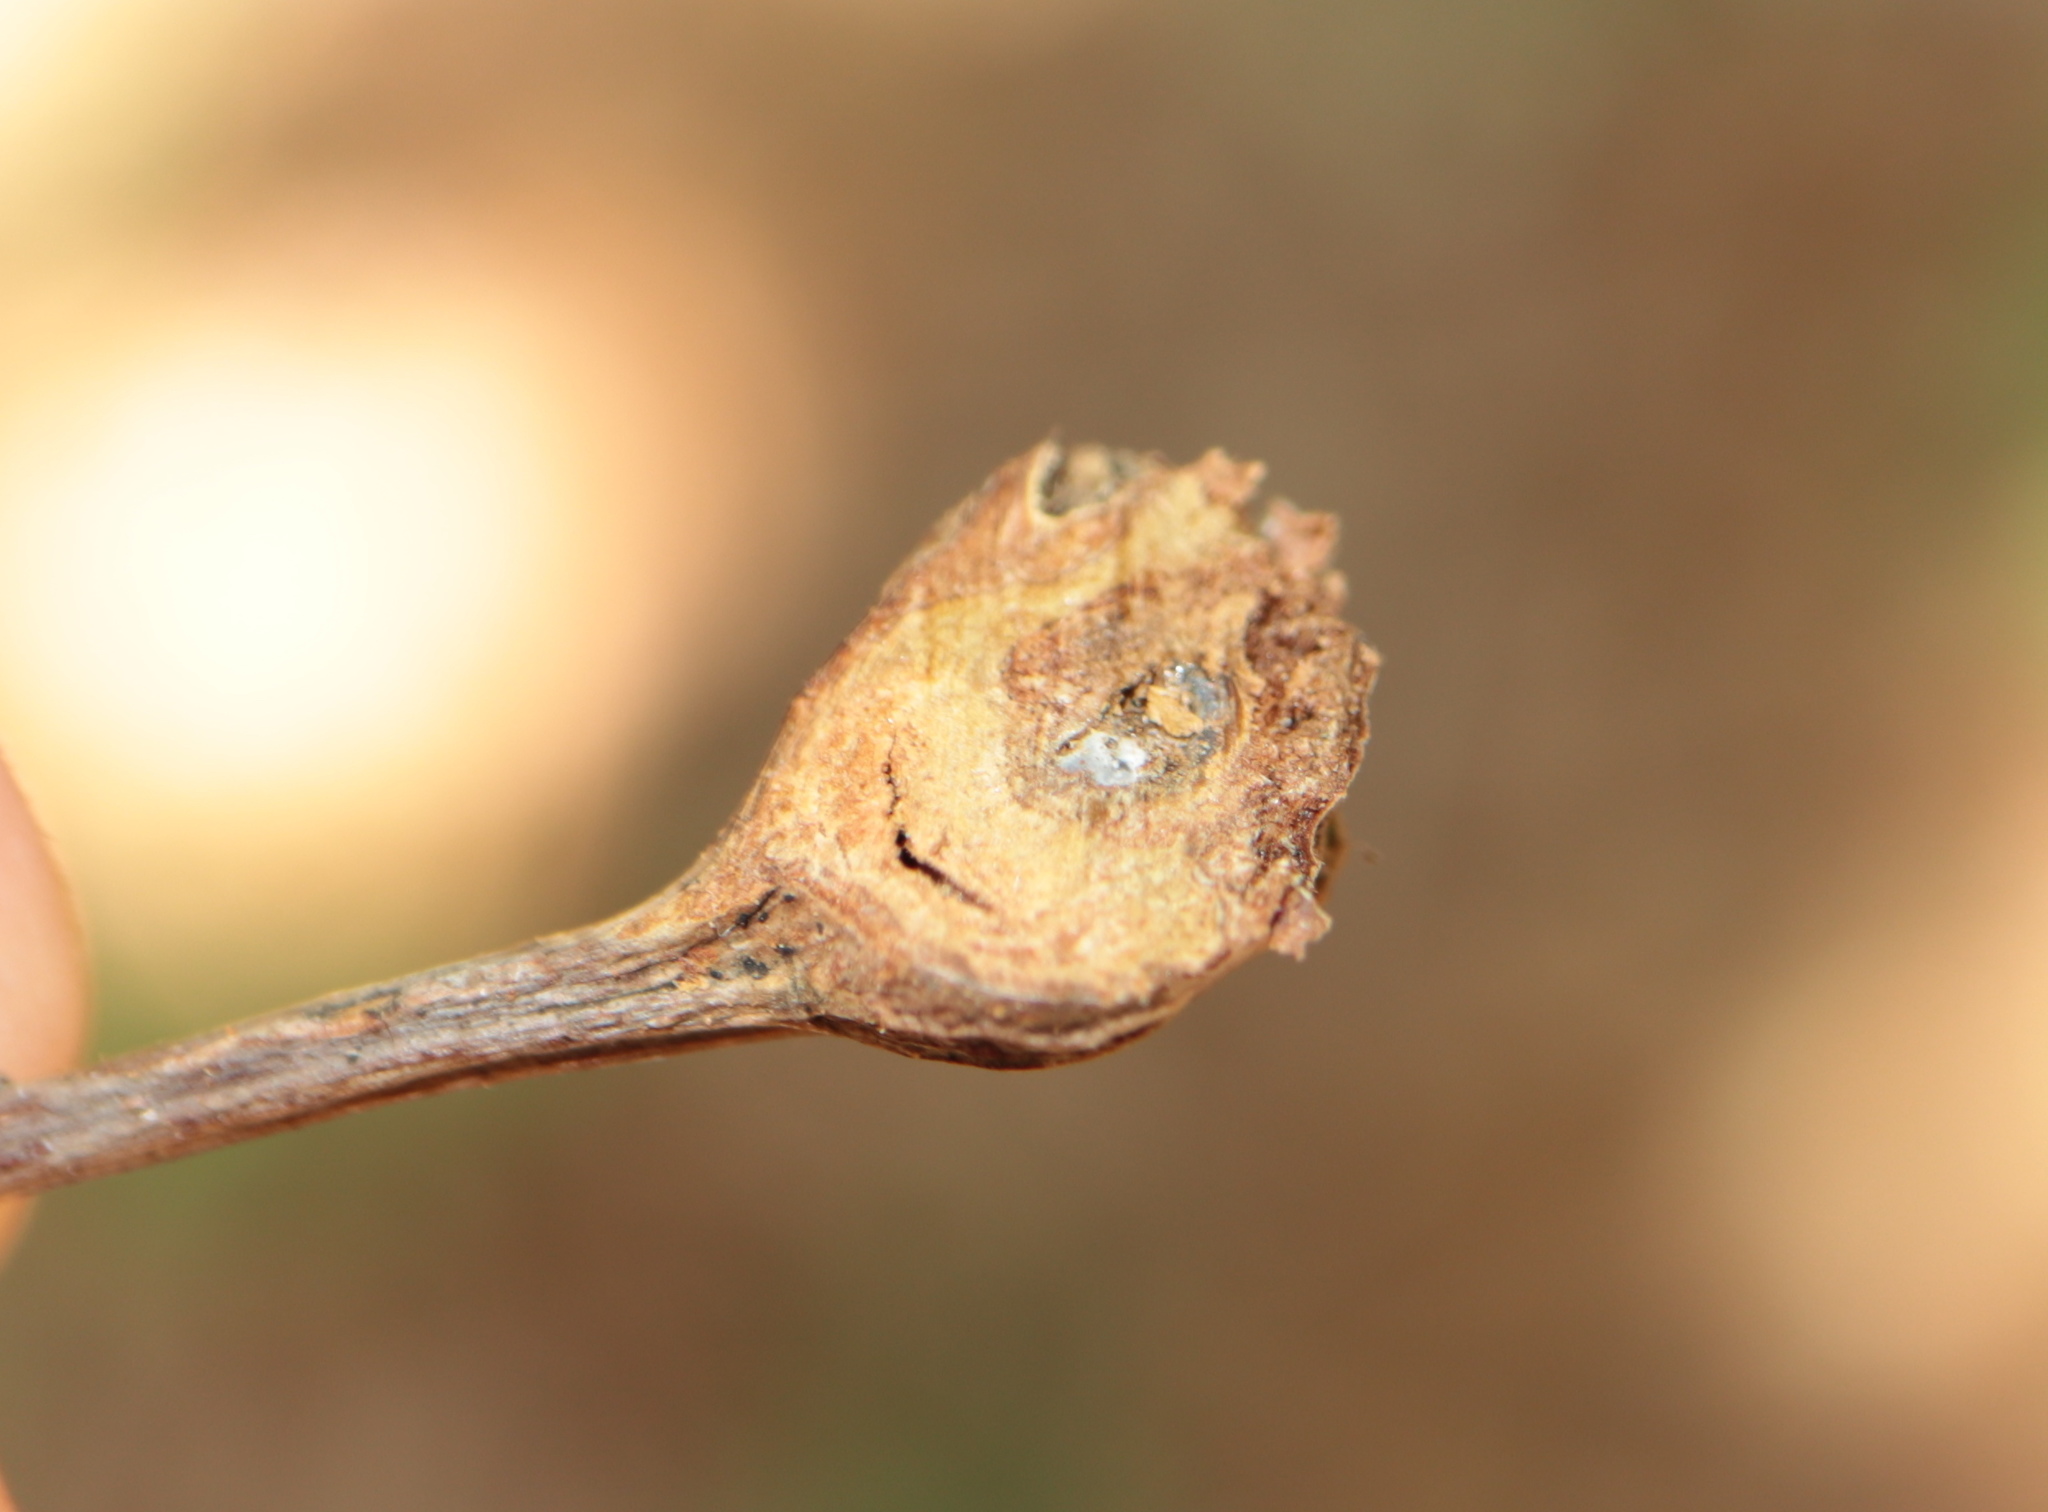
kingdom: Animalia
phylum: Arthropoda
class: Insecta
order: Hymenoptera
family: Cynipidae
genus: Callirhytis
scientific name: Callirhytis clavula
